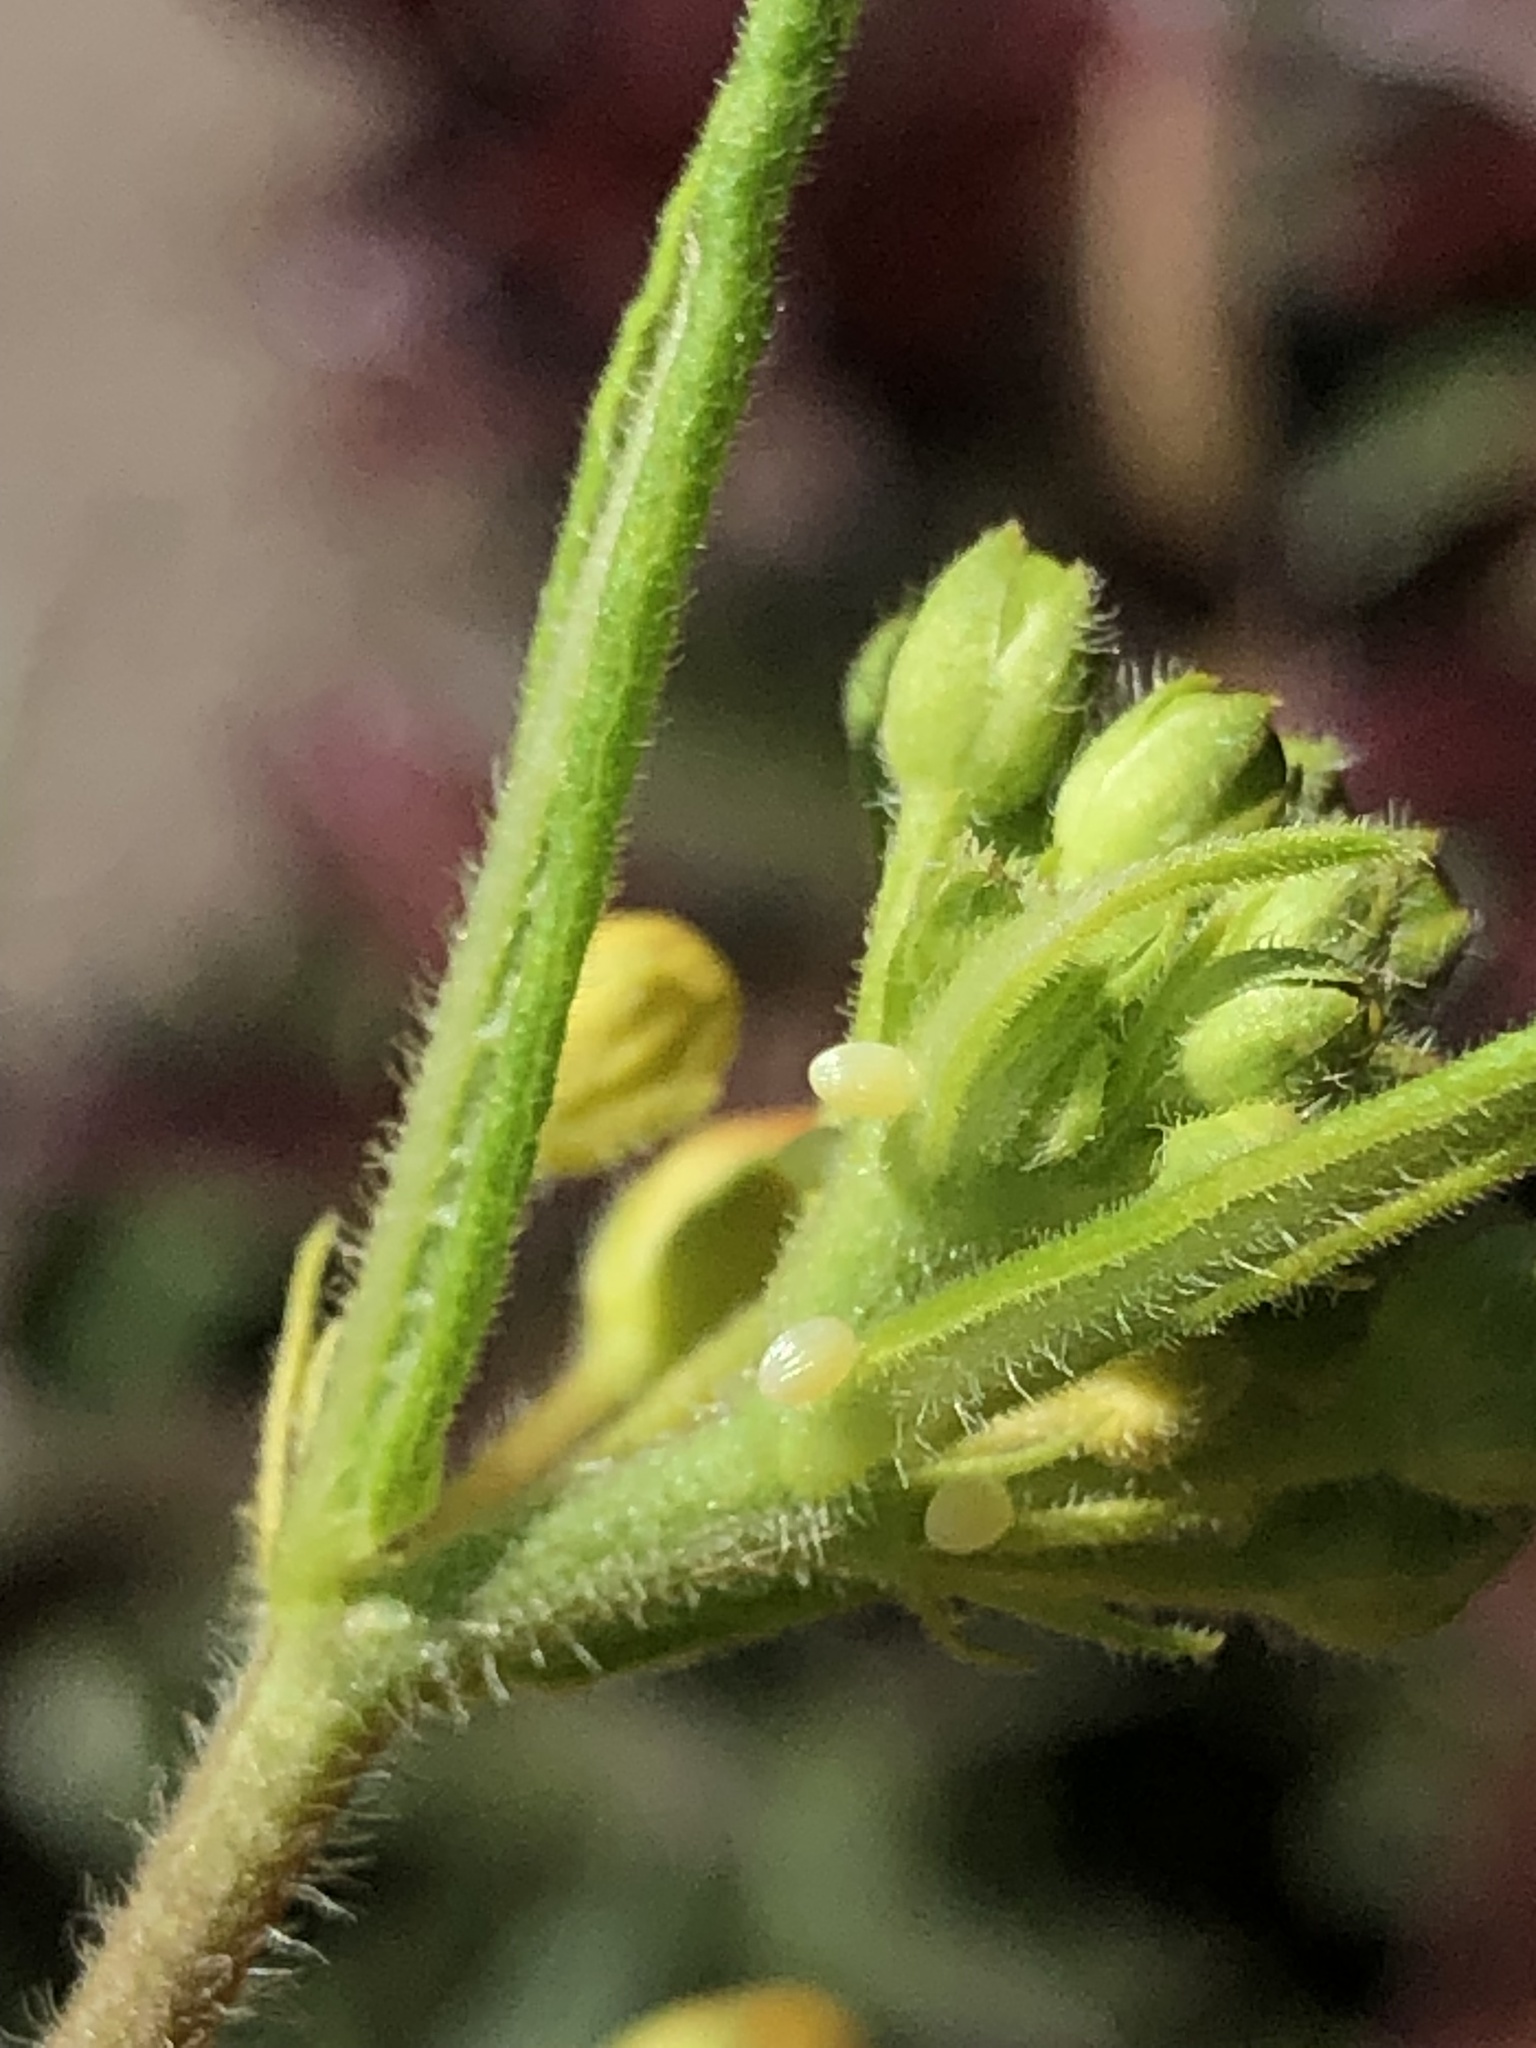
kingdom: Animalia
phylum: Arthropoda
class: Insecta
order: Lepidoptera
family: Nymphalidae
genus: Danaus
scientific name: Danaus plexippus
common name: Monarch
